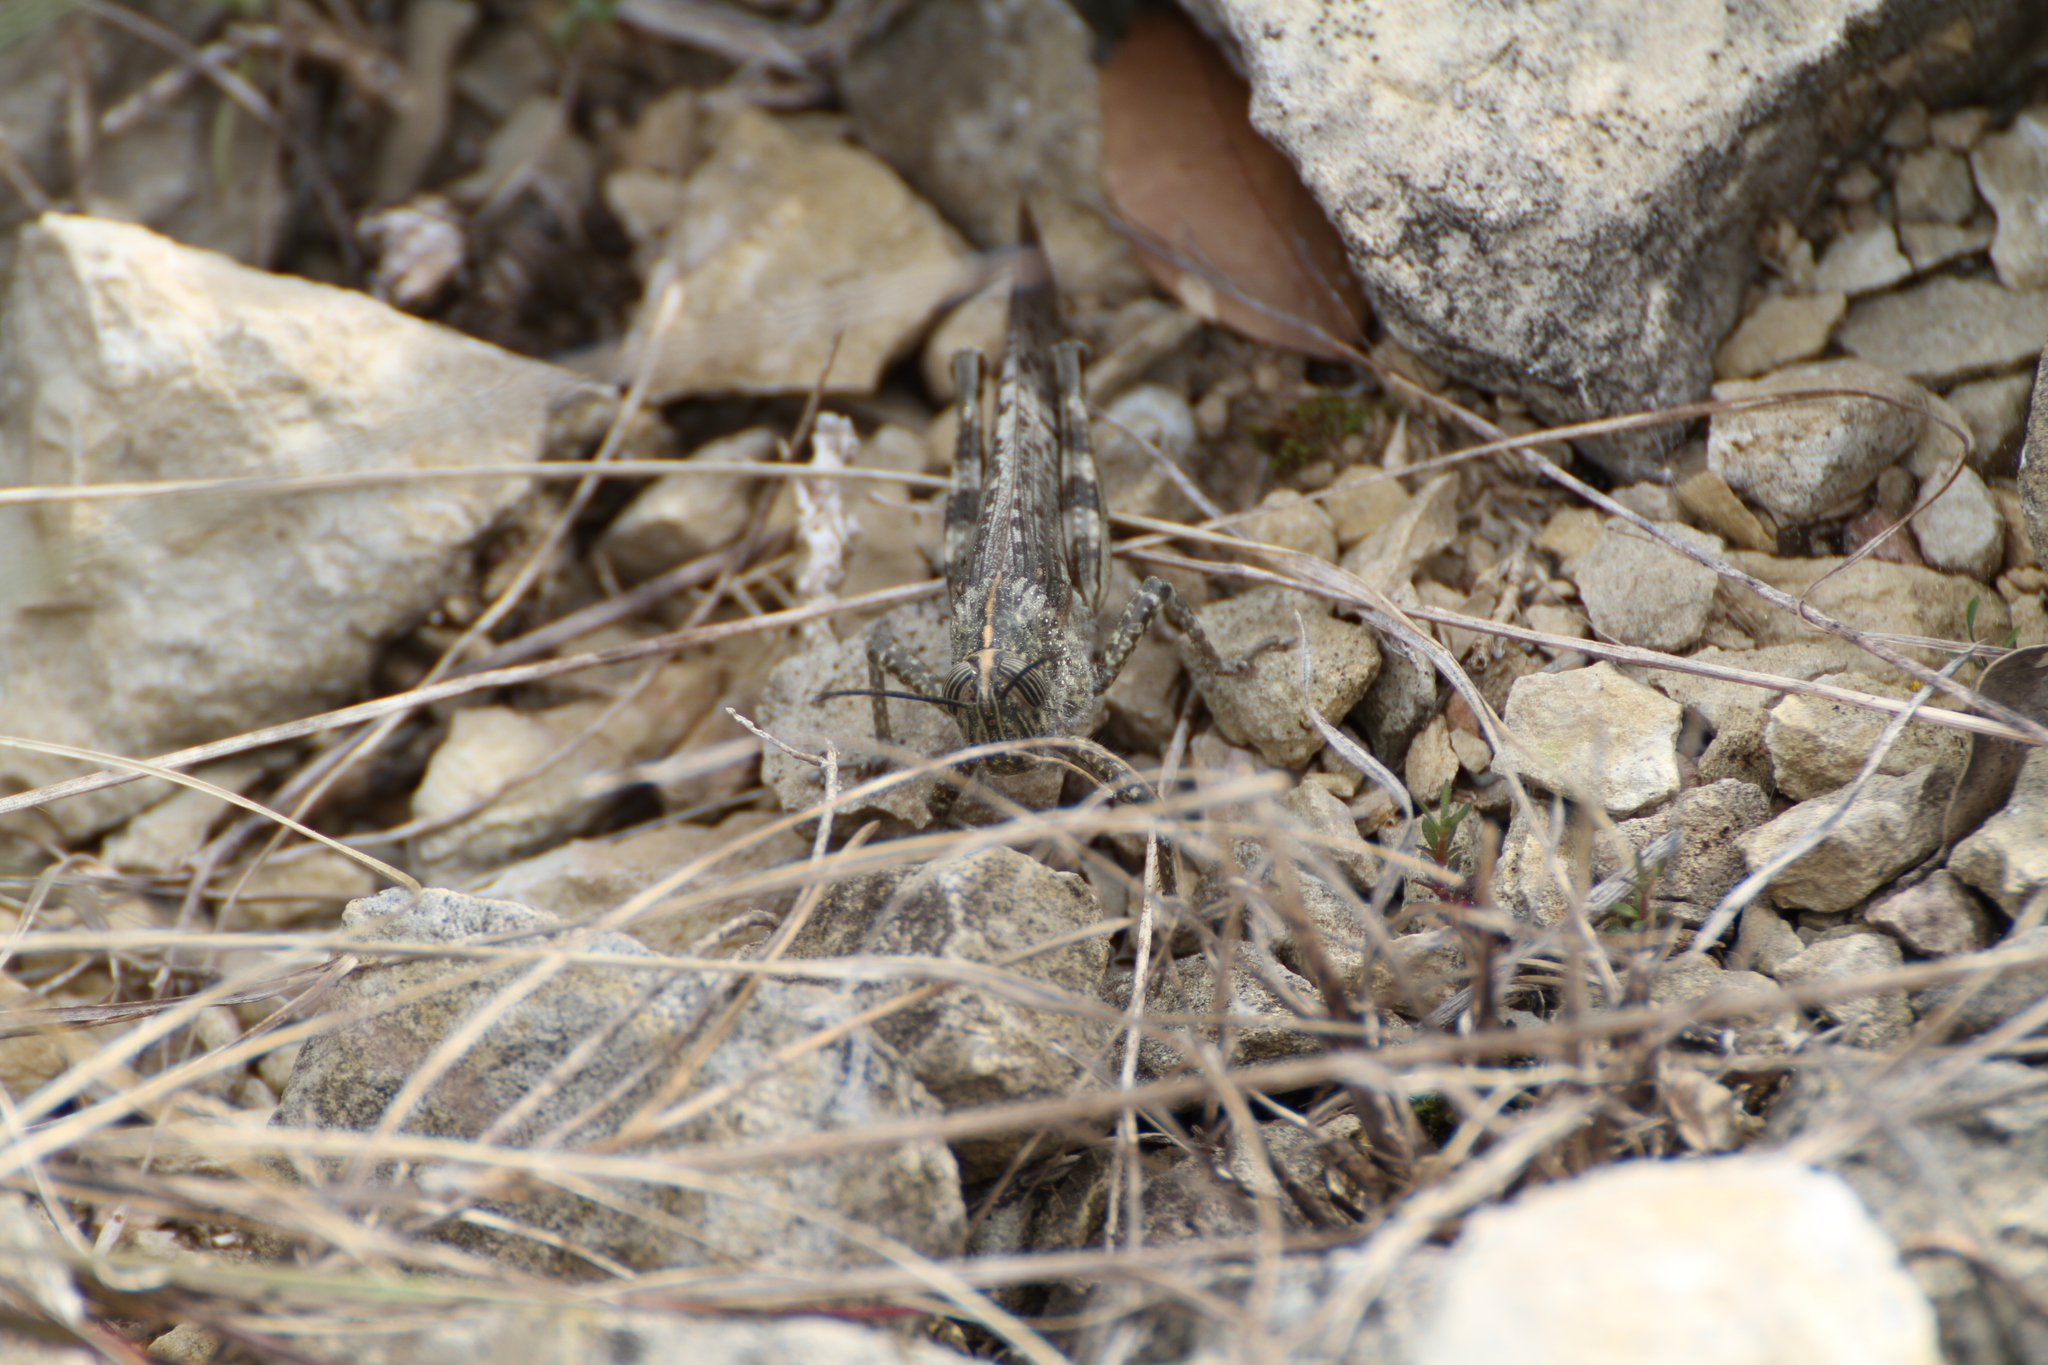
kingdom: Animalia
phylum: Arthropoda
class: Insecta
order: Orthoptera
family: Acrididae
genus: Anacridium
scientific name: Anacridium aegyptium
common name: Egyptian grasshopper
